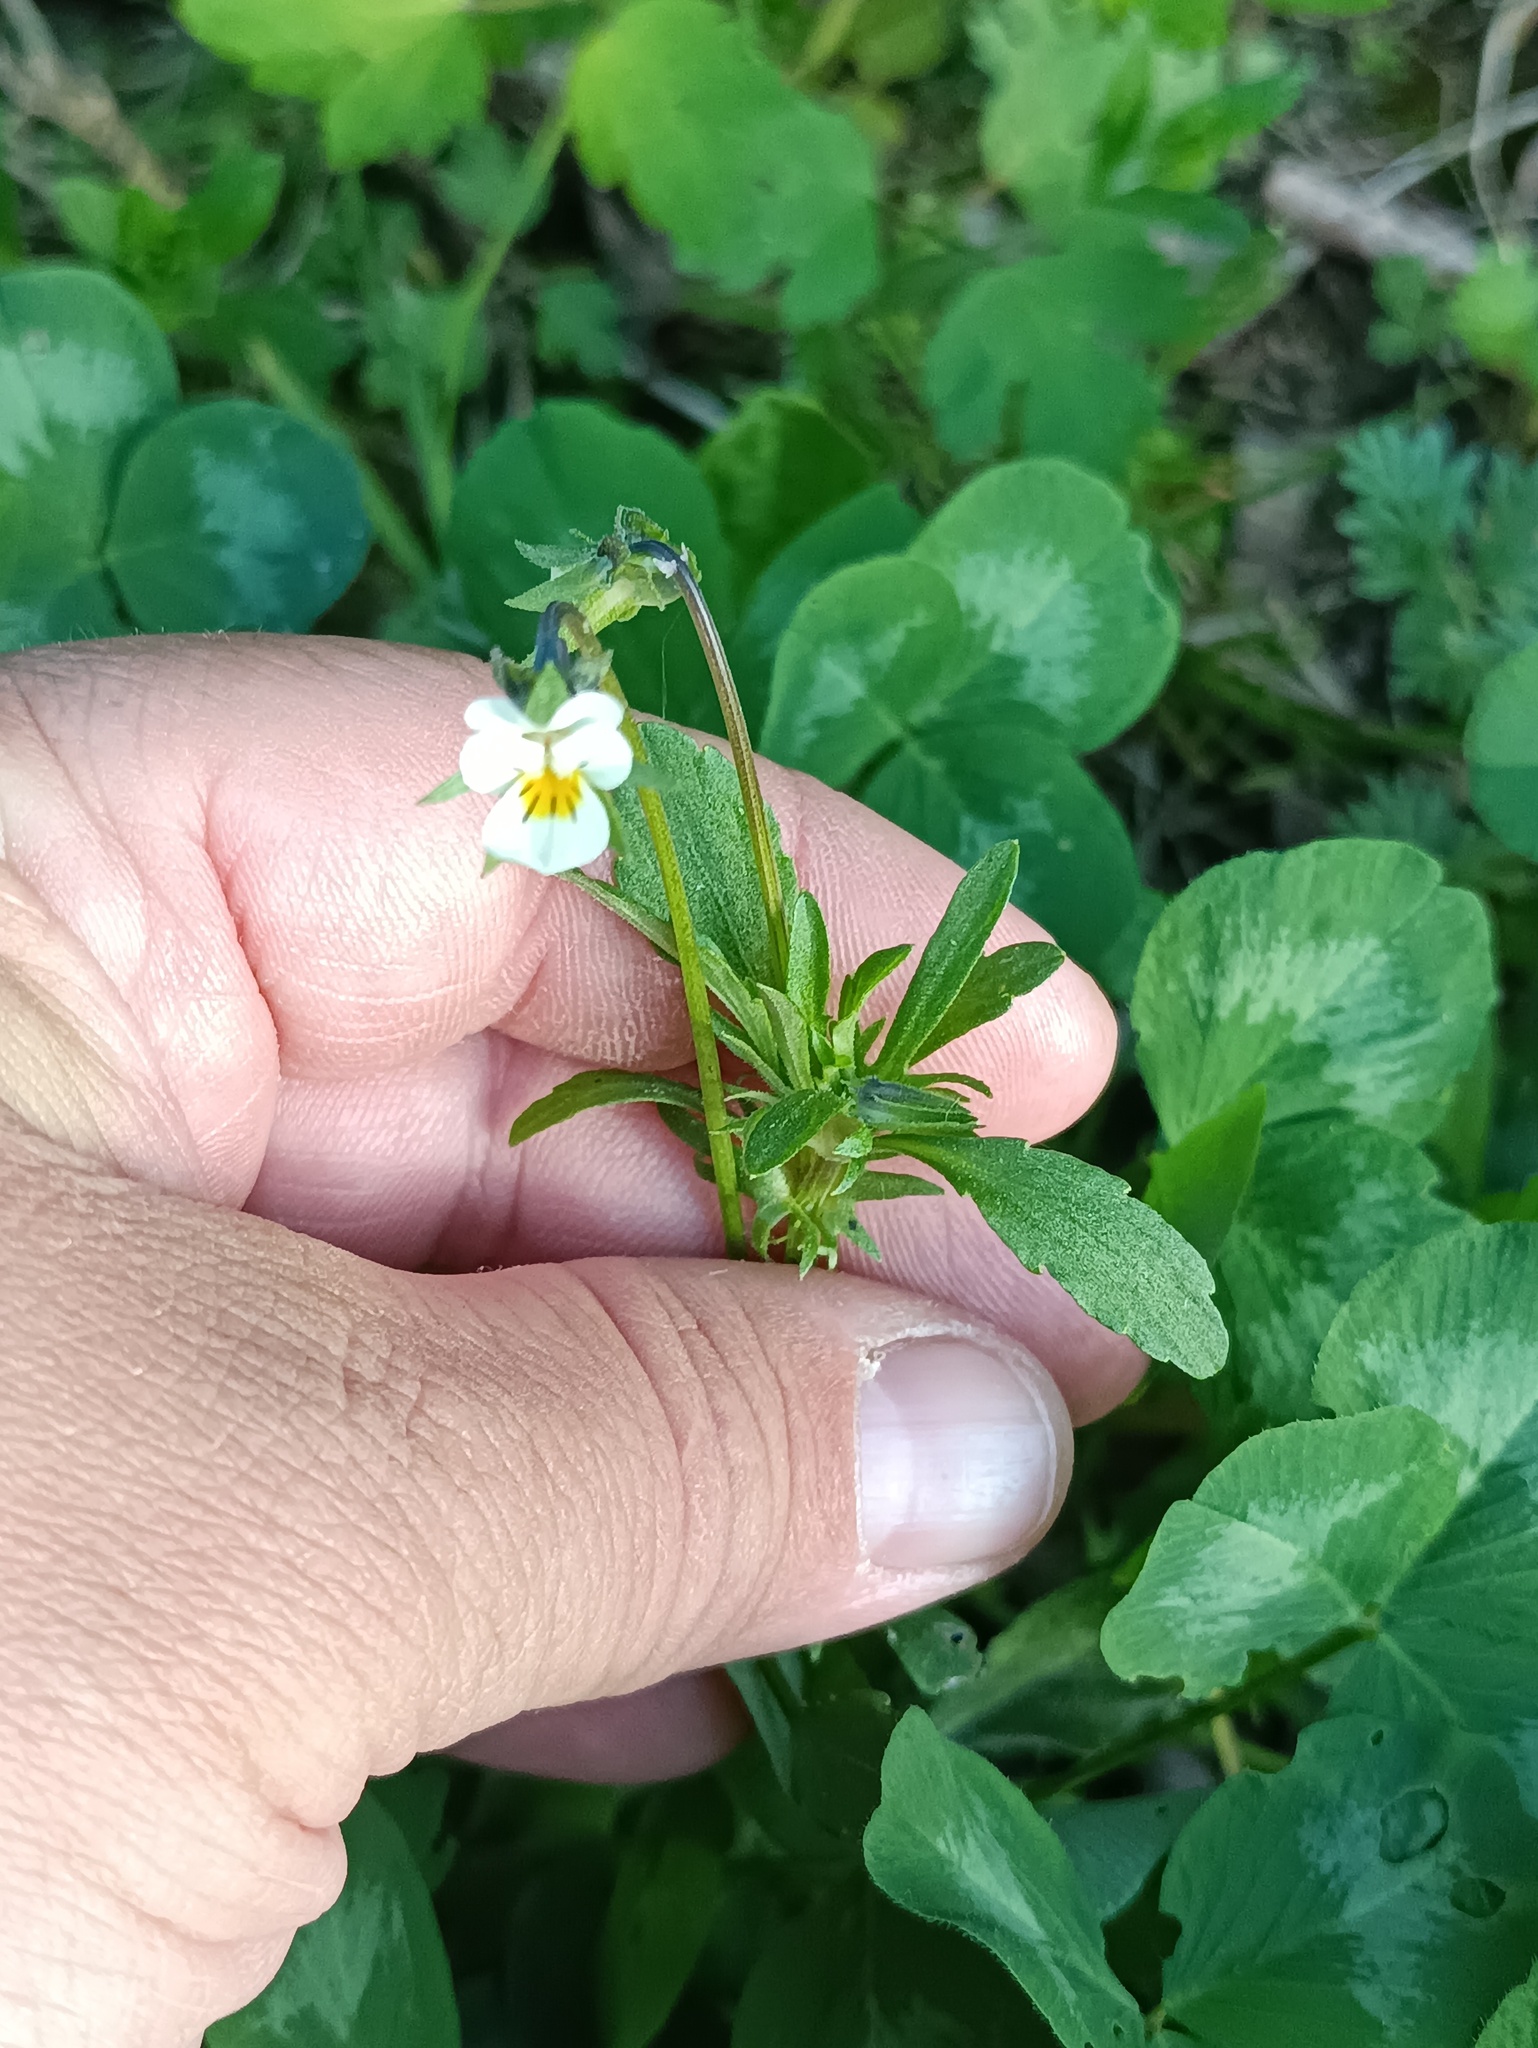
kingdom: Plantae
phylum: Tracheophyta
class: Magnoliopsida
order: Malpighiales
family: Violaceae
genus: Viola
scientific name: Viola arvensis
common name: Field pansy
